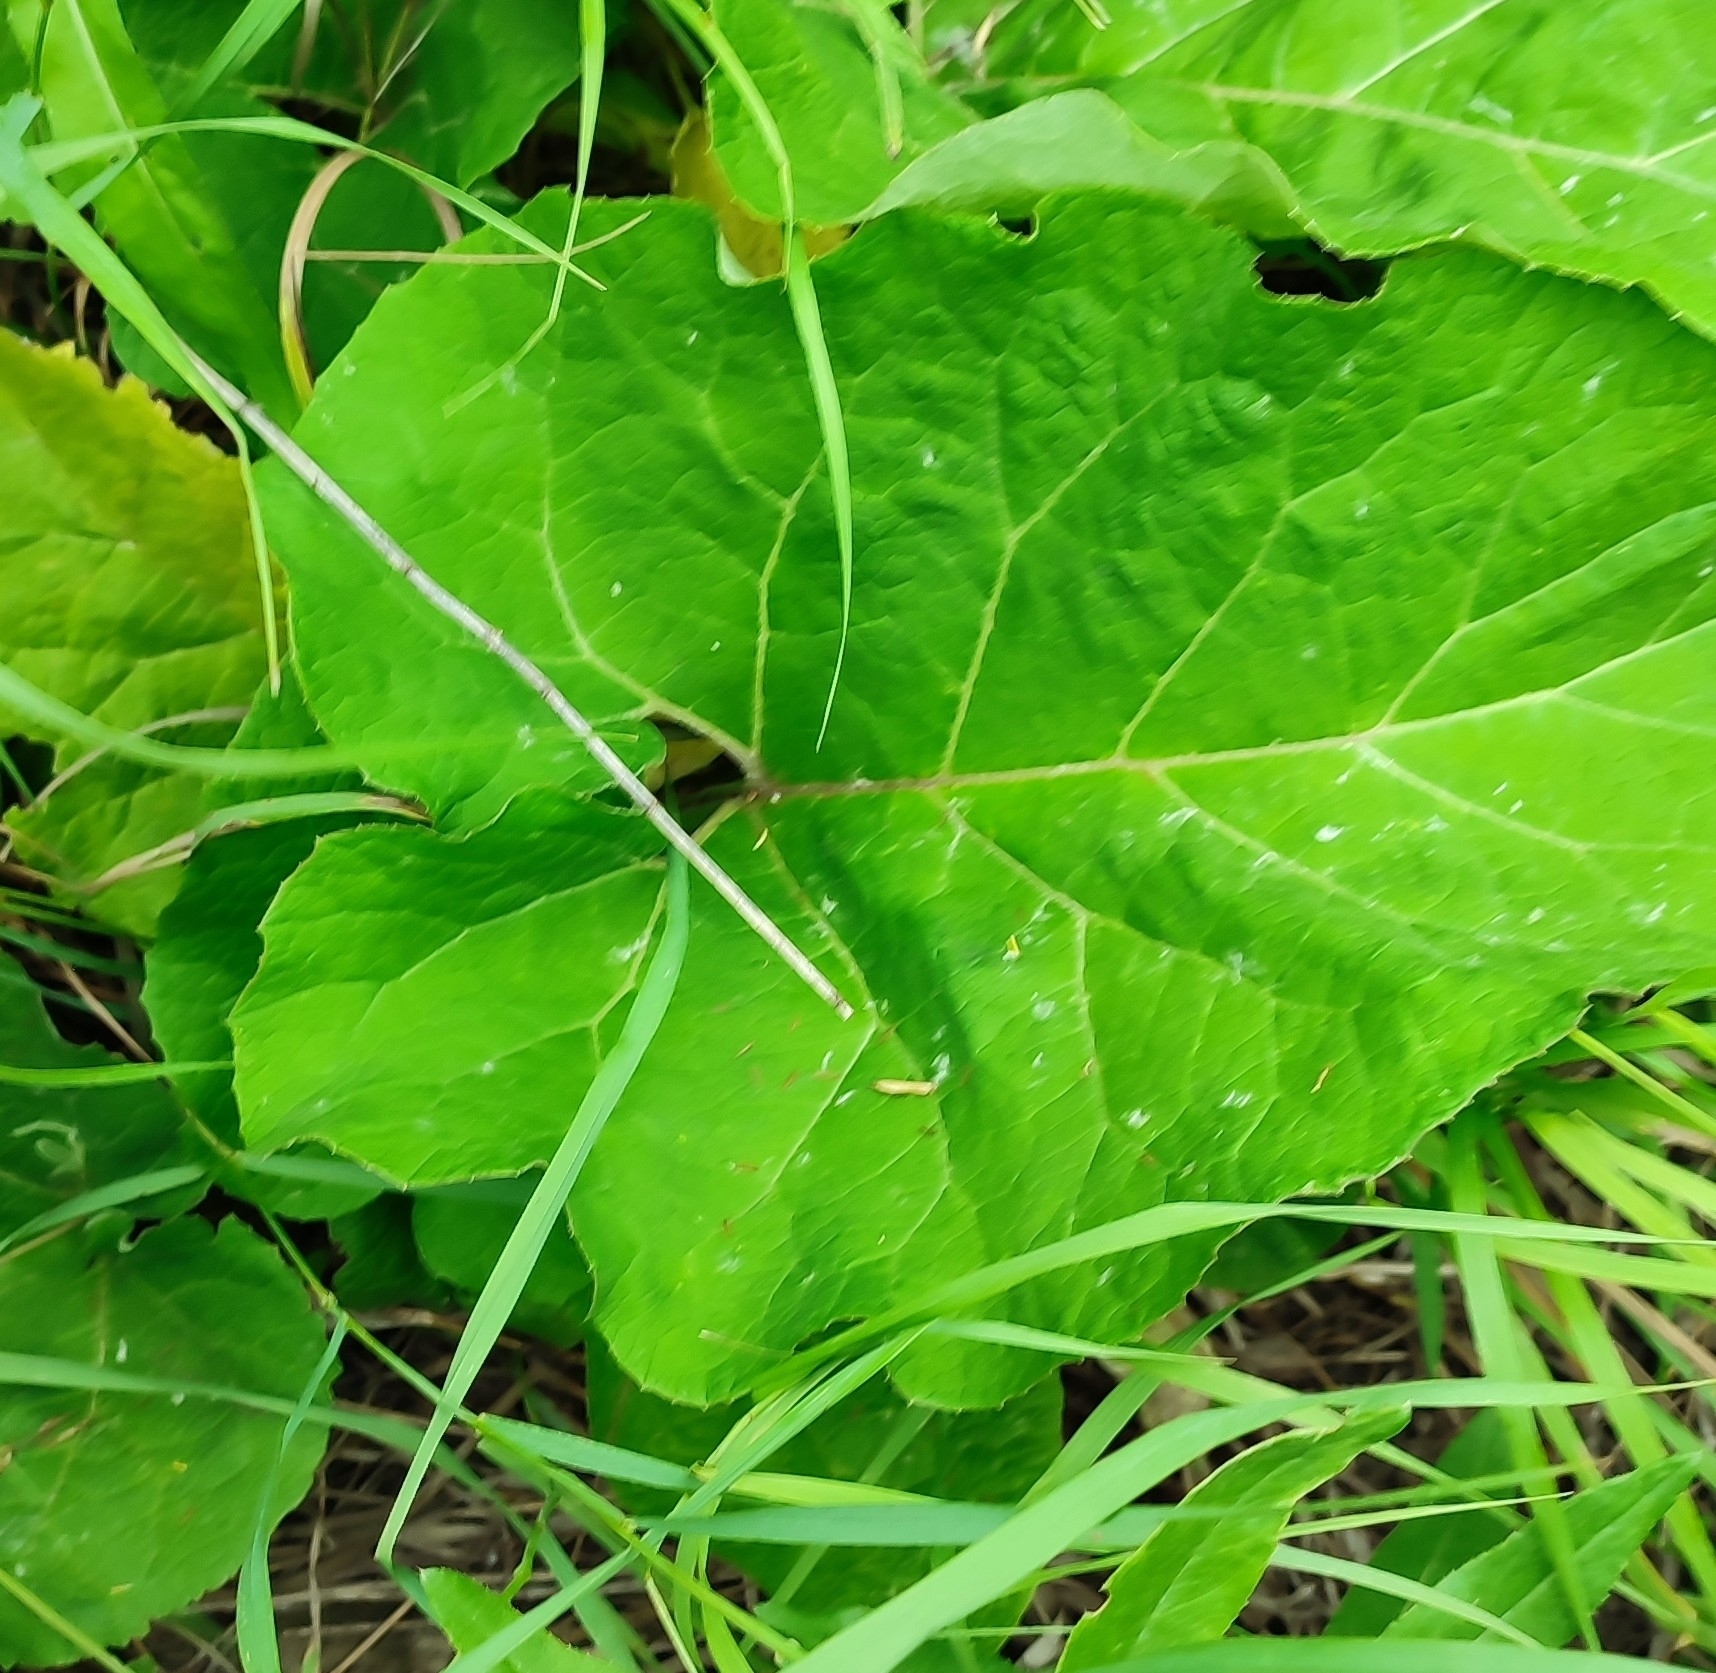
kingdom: Plantae
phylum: Tracheophyta
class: Magnoliopsida
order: Asterales
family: Asteraceae
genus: Arctium
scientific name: Arctium tomentosum
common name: Woolly burdock
